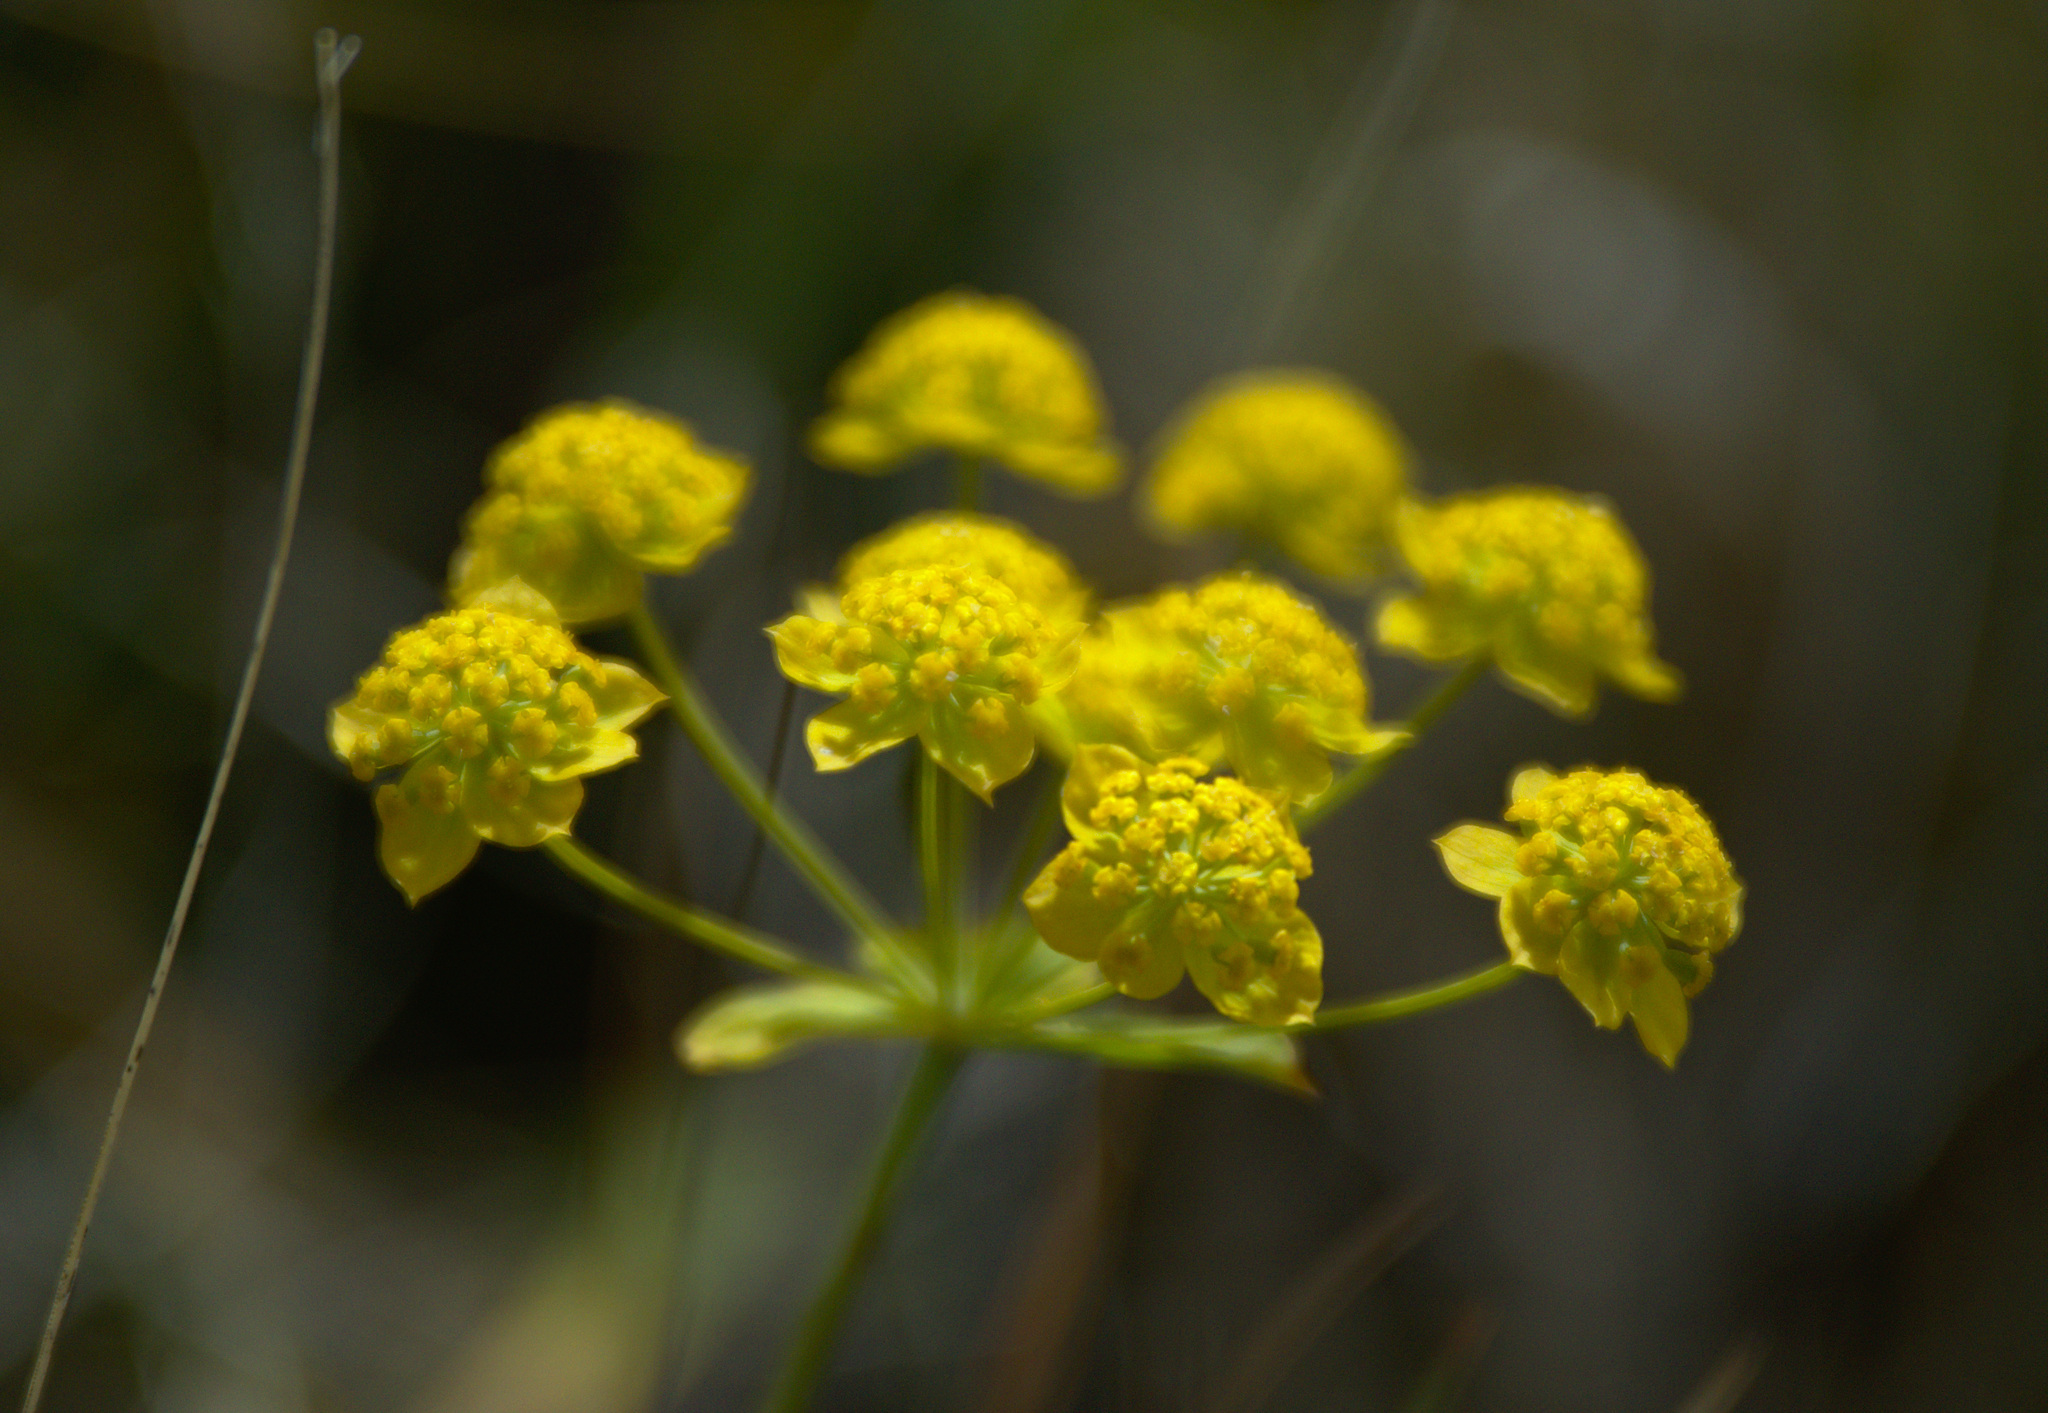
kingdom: Plantae
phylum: Tracheophyta
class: Magnoliopsida
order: Apiales
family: Apiaceae
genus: Bupleurum
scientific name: Bupleurum multinerve
